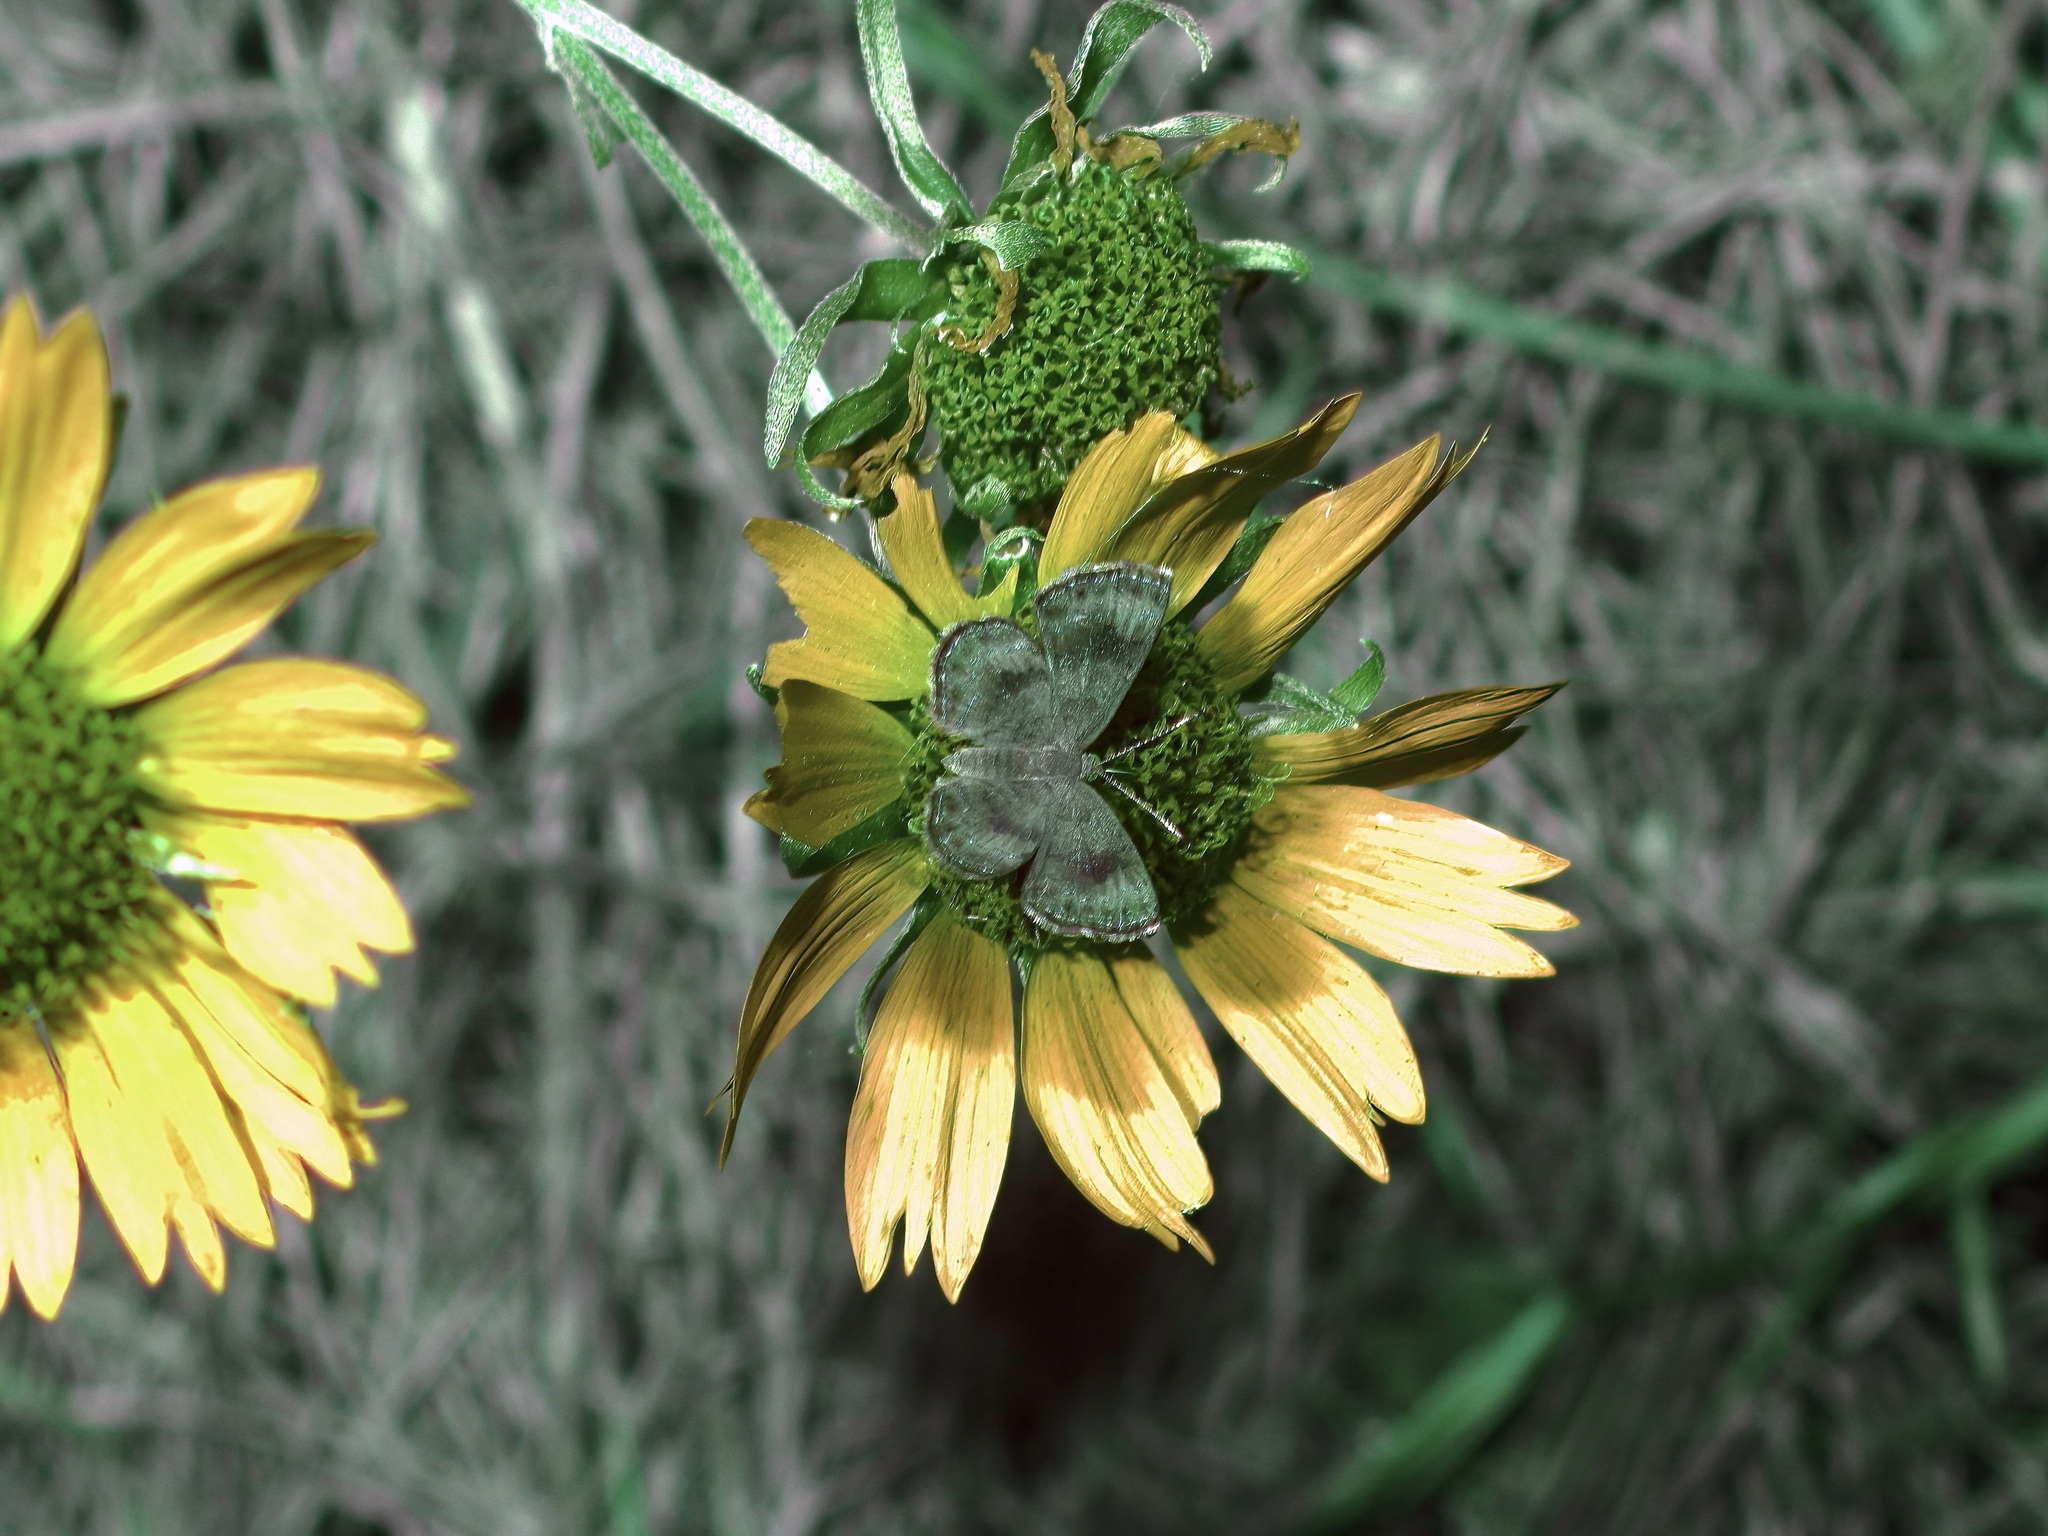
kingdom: Animalia
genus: Calephelis
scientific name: Calephelis nemesis
